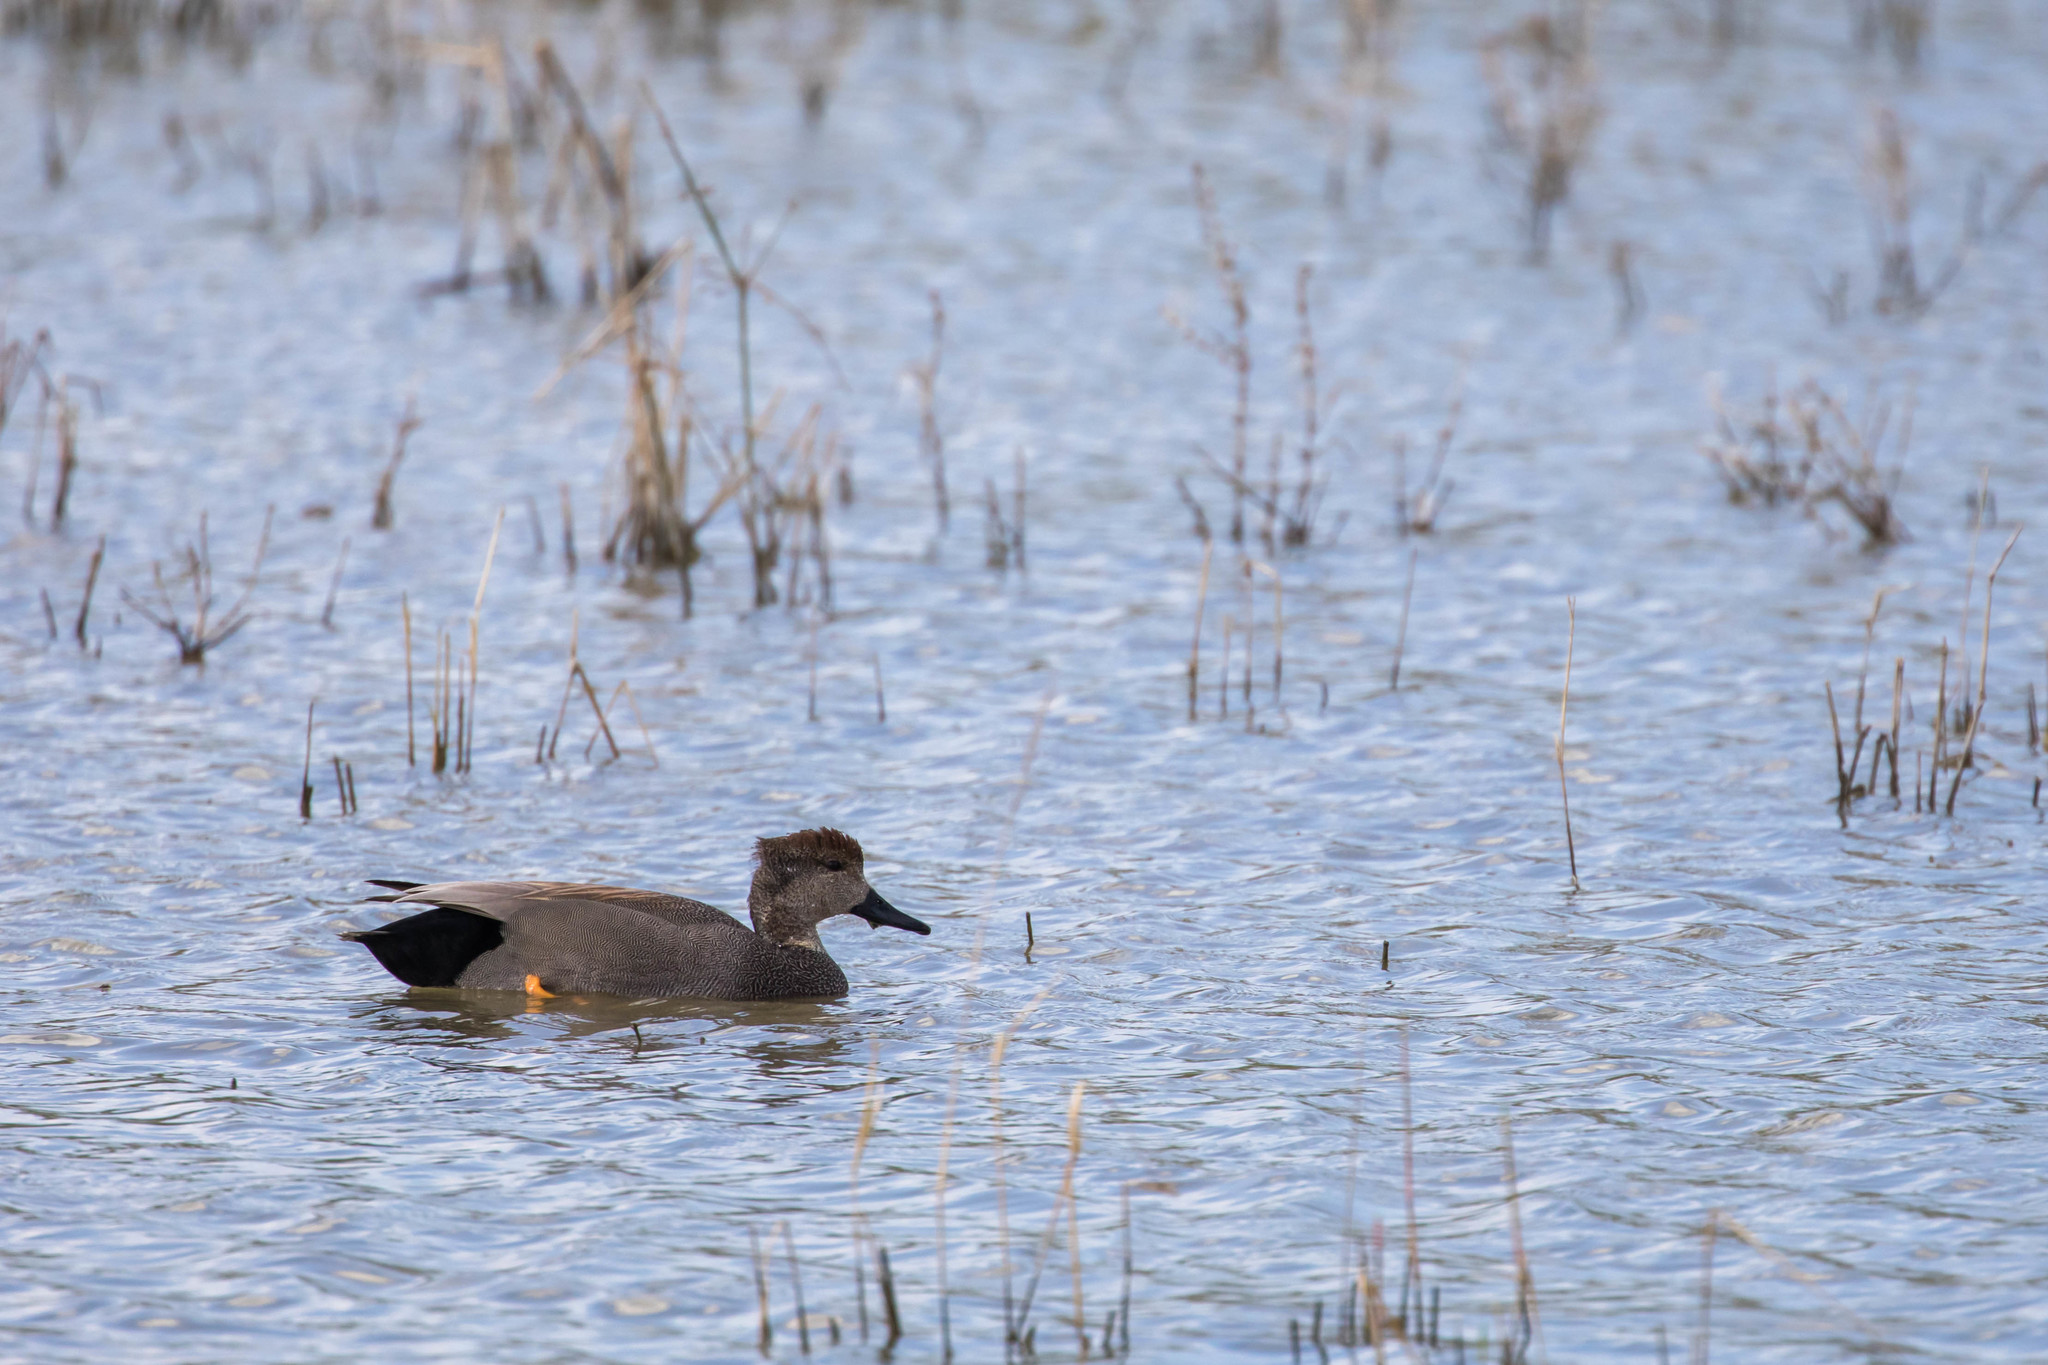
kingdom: Animalia
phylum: Chordata
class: Aves
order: Anseriformes
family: Anatidae
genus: Mareca
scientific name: Mareca strepera
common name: Gadwall
